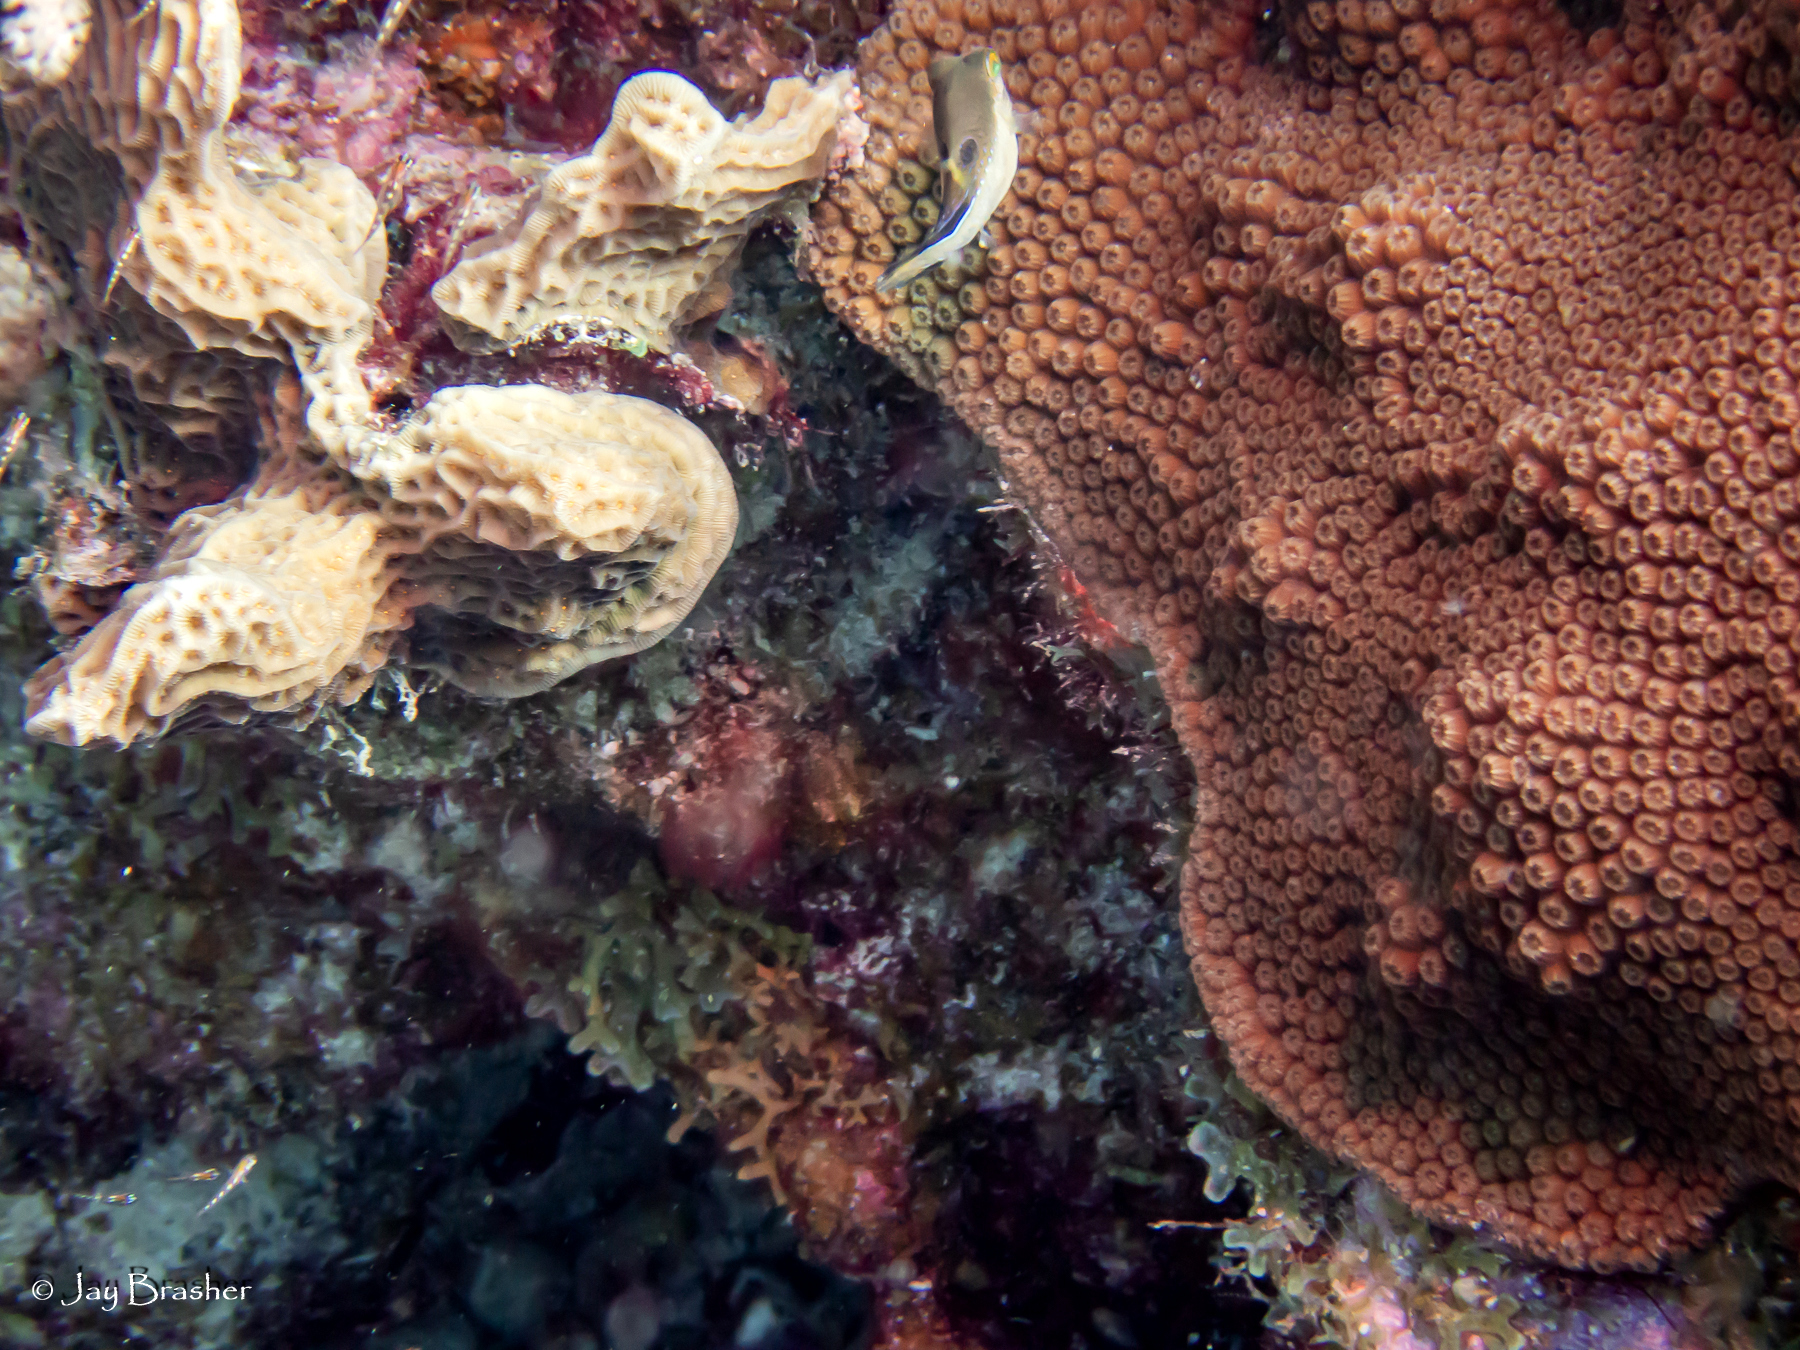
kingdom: Animalia
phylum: Chordata
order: Tetraodontiformes
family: Tetraodontidae
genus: Canthigaster
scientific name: Canthigaster rostrata
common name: Caribbean sharpnose-puffer
